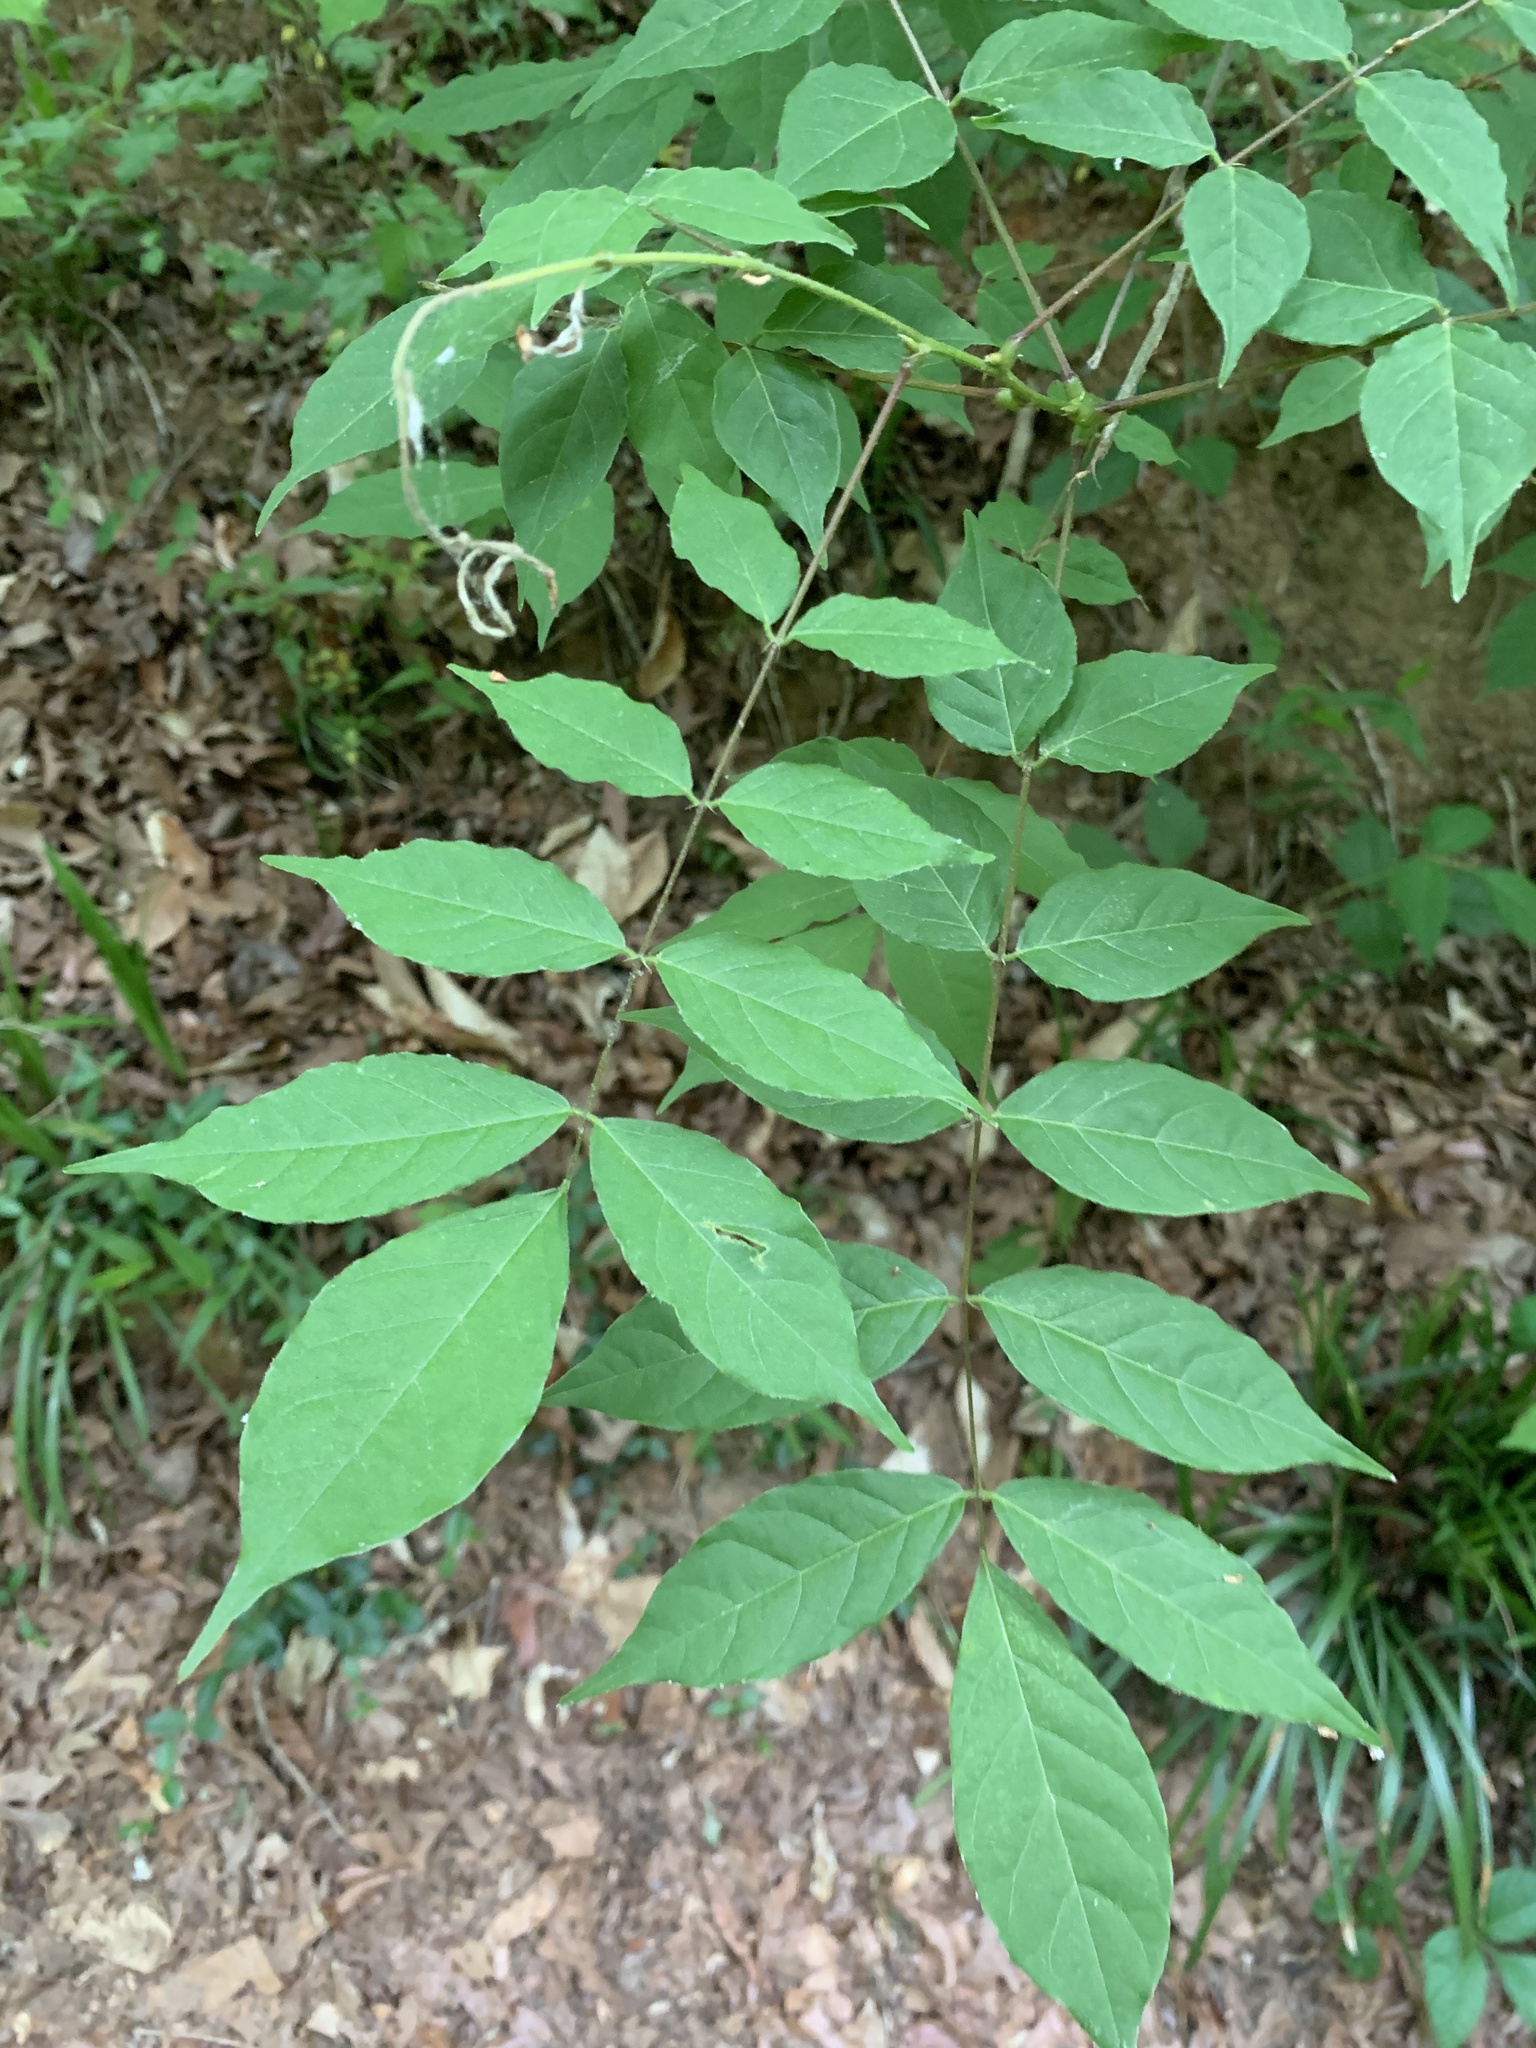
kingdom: Plantae
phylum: Tracheophyta
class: Magnoliopsida
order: Fabales
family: Fabaceae
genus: Wisteria
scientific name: Wisteria sinensis
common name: Chinese wisteria
